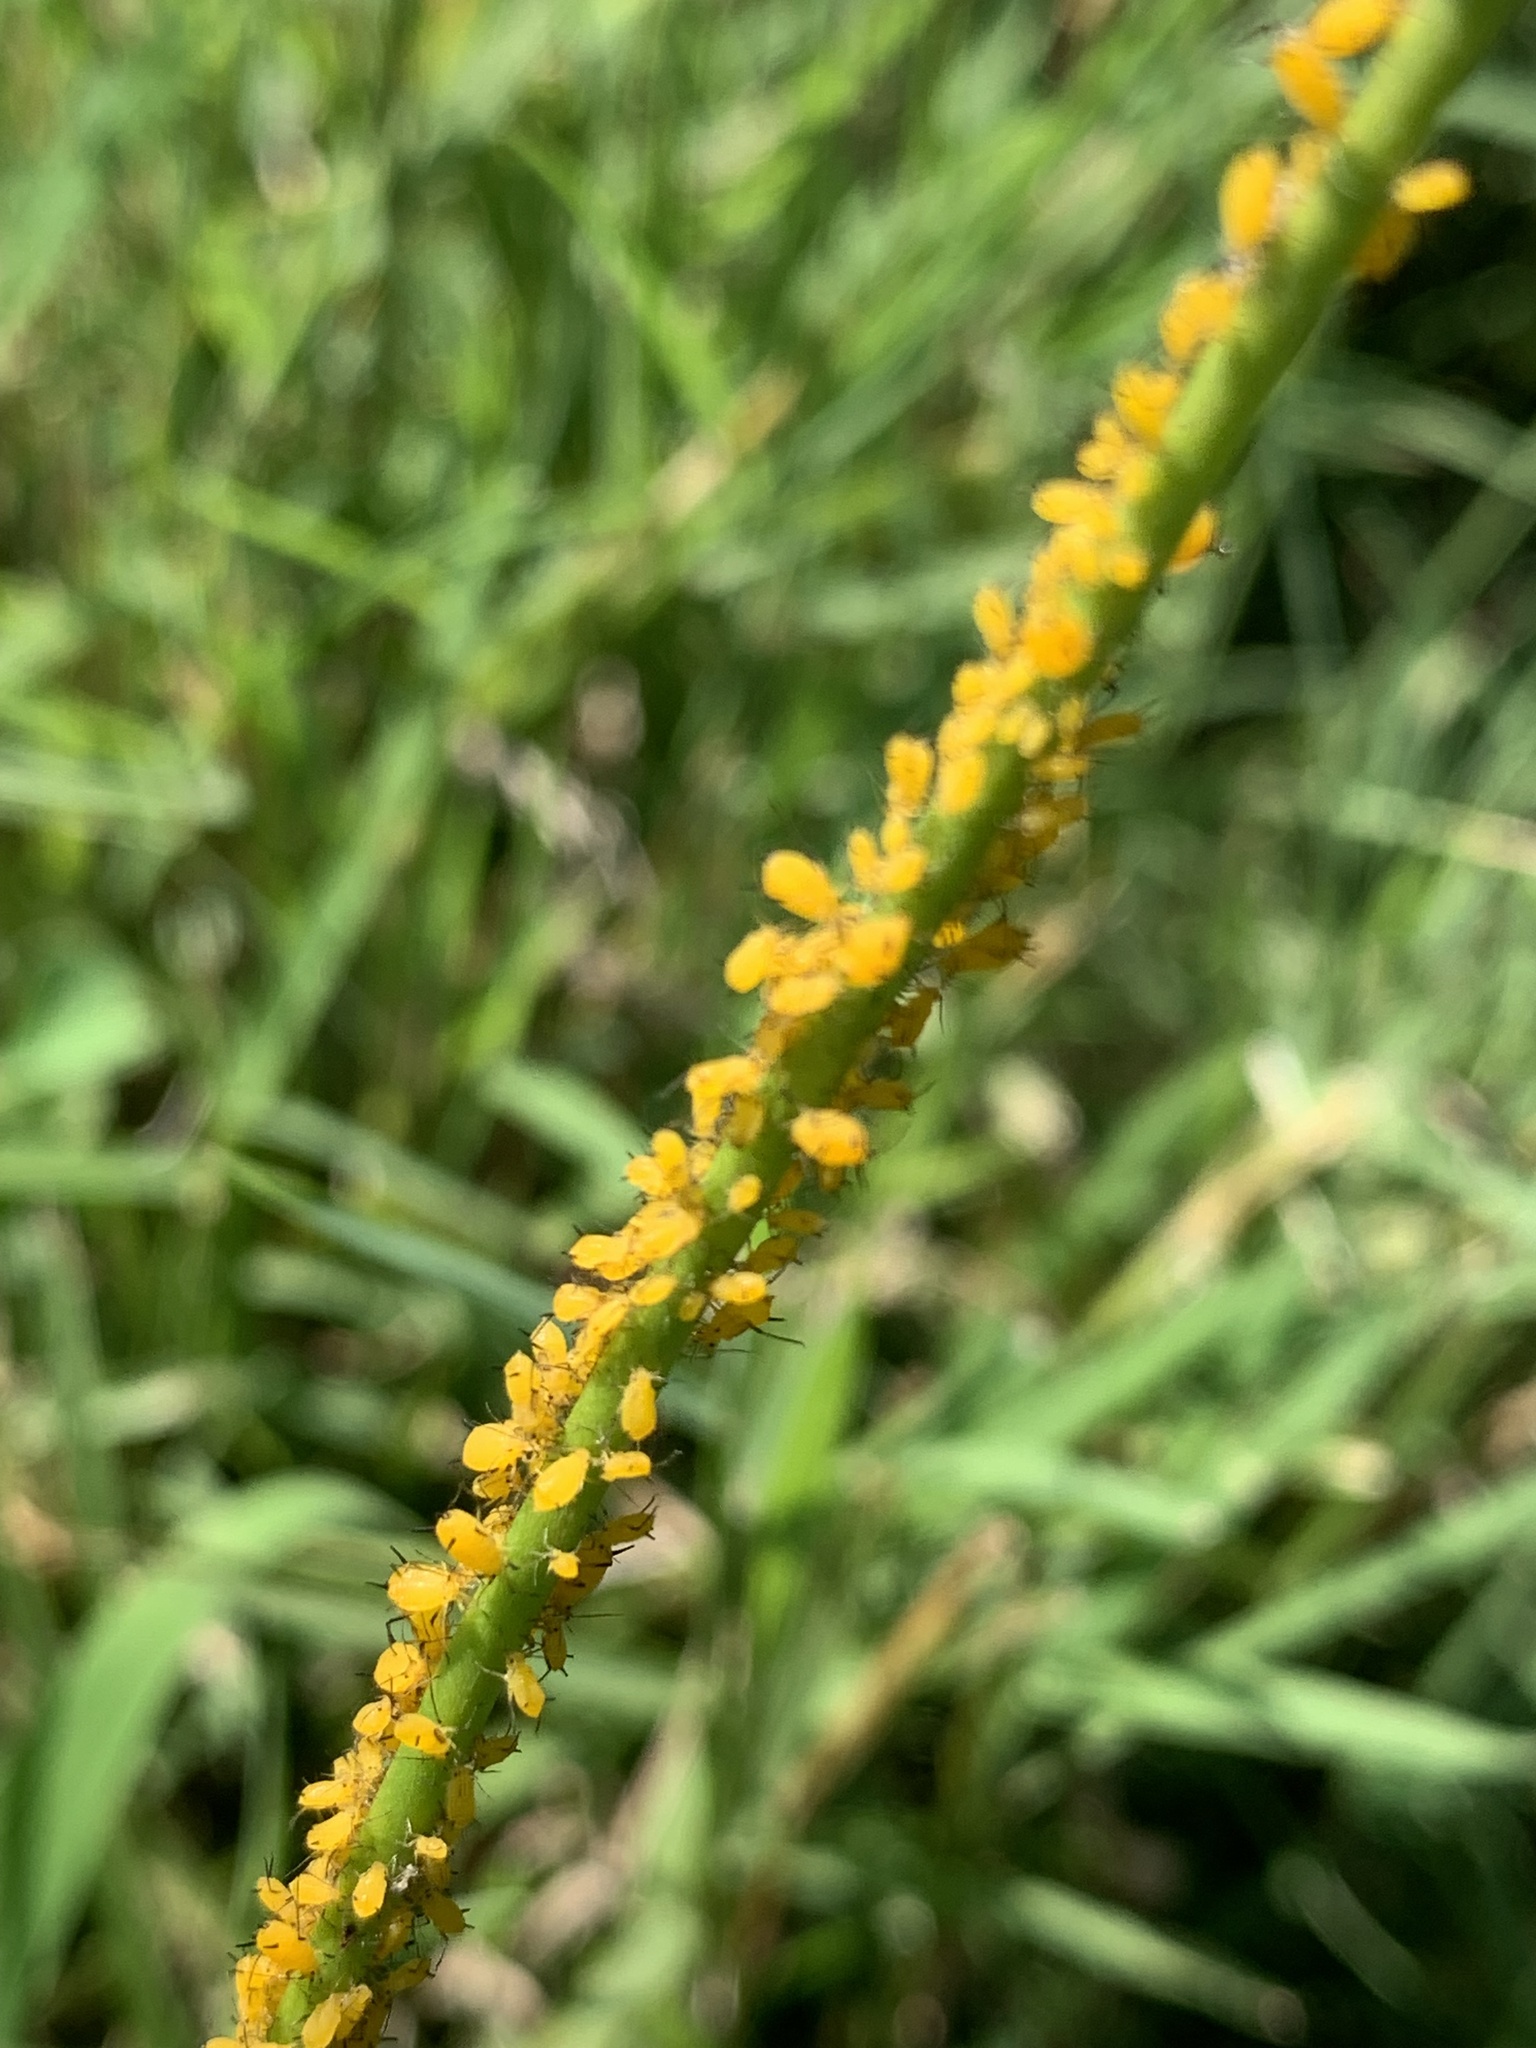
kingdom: Animalia
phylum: Arthropoda
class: Insecta
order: Hemiptera
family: Aphididae
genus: Aphis
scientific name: Aphis nerii
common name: Oleander aphid
